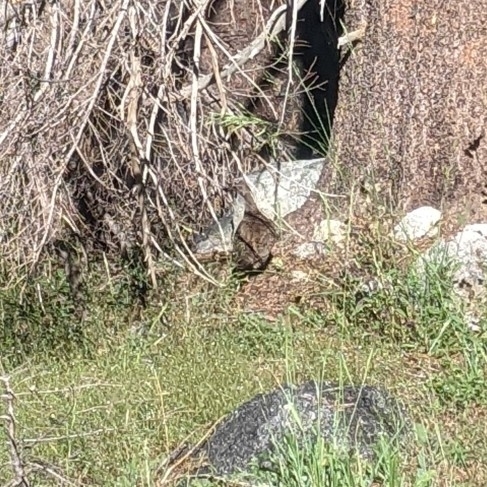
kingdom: Animalia
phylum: Chordata
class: Aves
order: Galliformes
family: Phasianidae
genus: Dendragapus
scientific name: Dendragapus fuliginosus
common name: Sooty grouse
